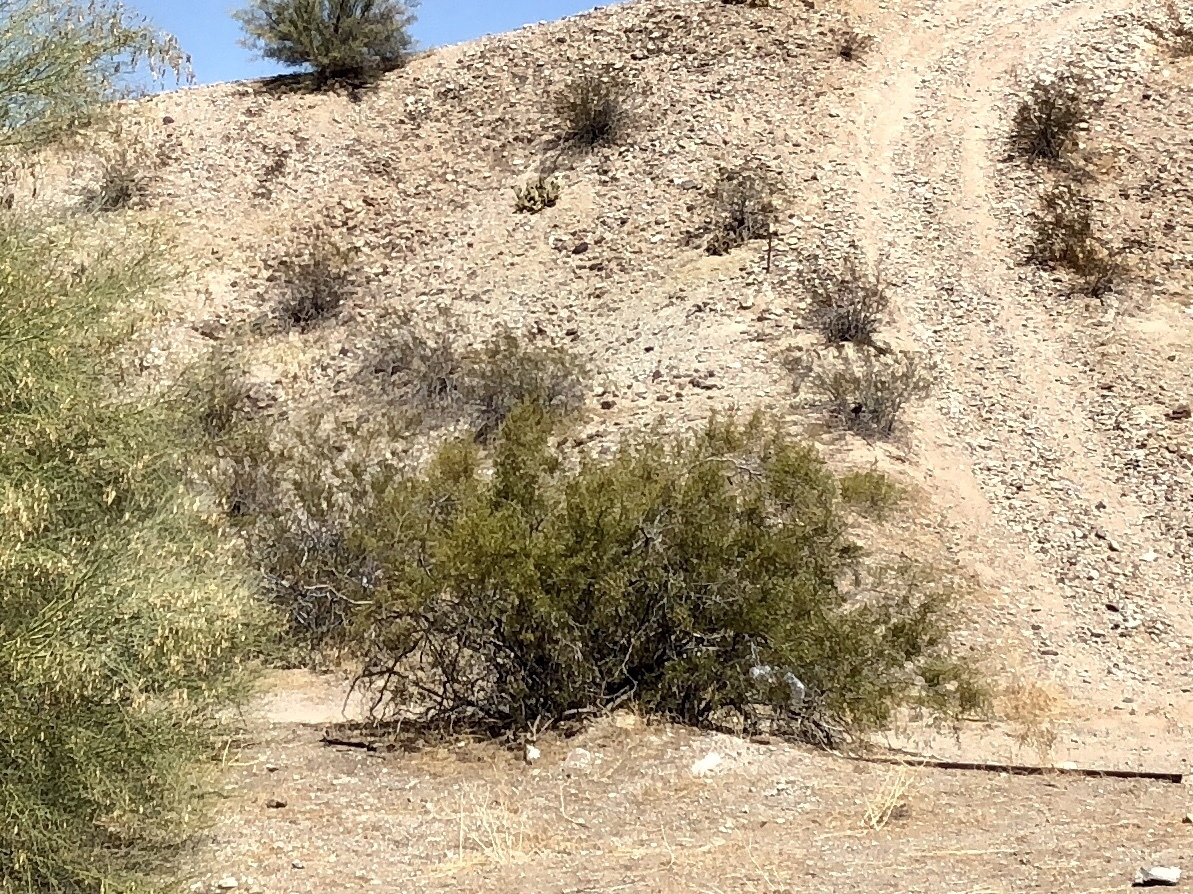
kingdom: Plantae
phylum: Tracheophyta
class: Magnoliopsida
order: Zygophyllales
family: Zygophyllaceae
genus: Larrea
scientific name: Larrea tridentata
